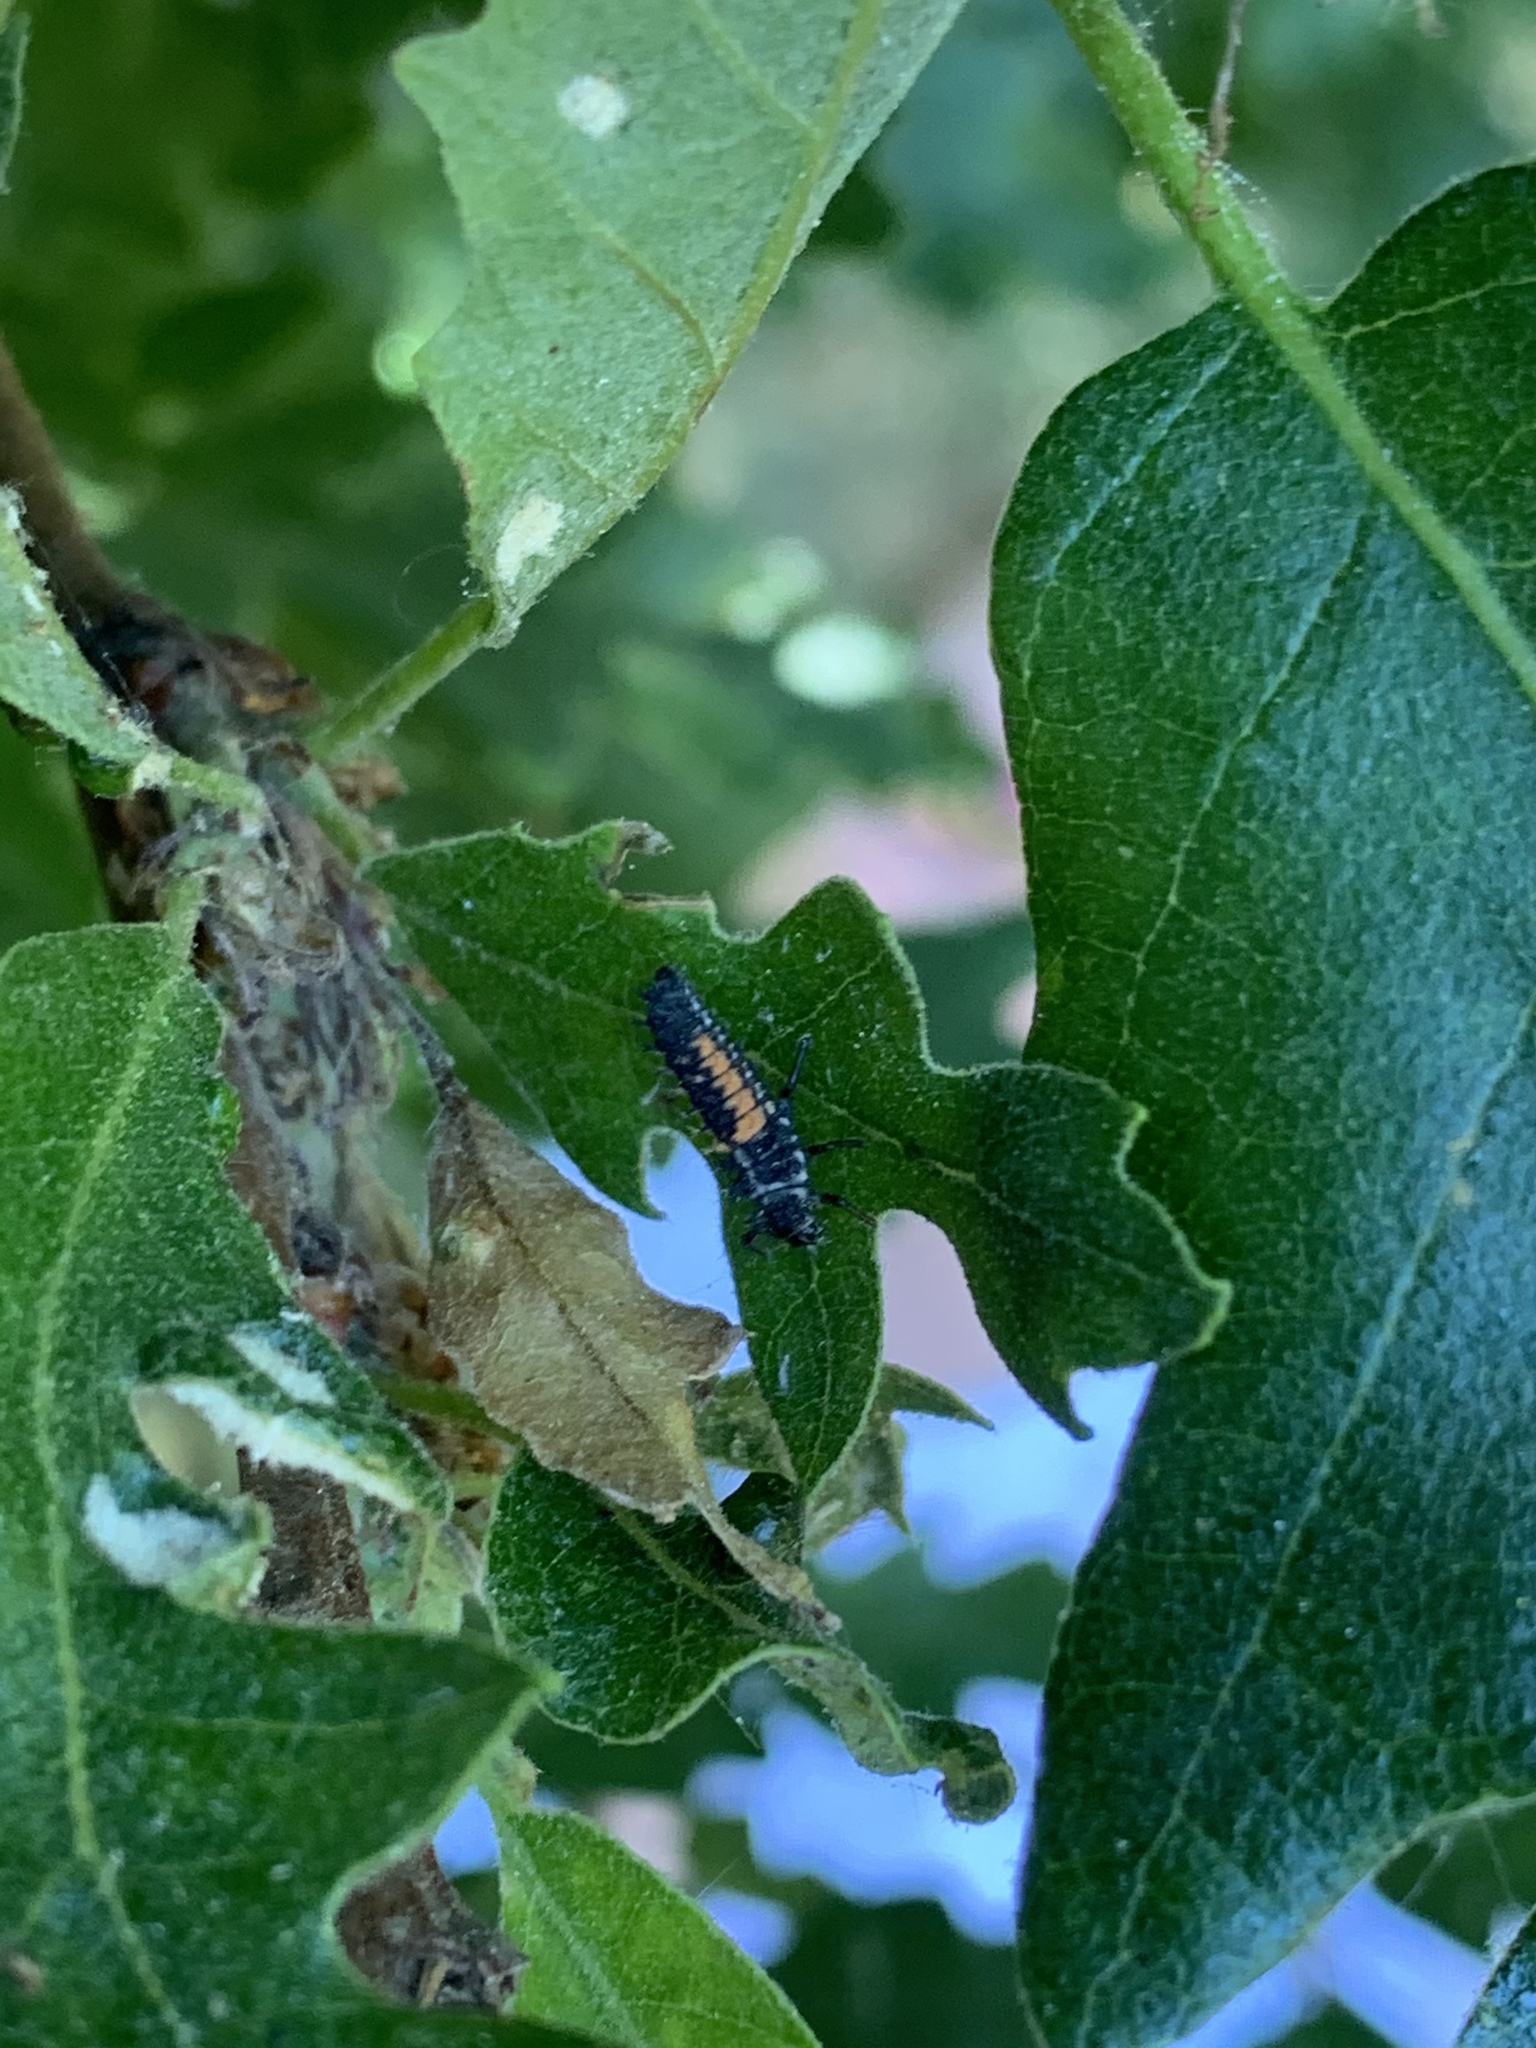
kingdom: Animalia
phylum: Arthropoda
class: Insecta
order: Coleoptera
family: Coccinellidae
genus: Harmonia
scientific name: Harmonia axyridis
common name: Harlequin ladybird
